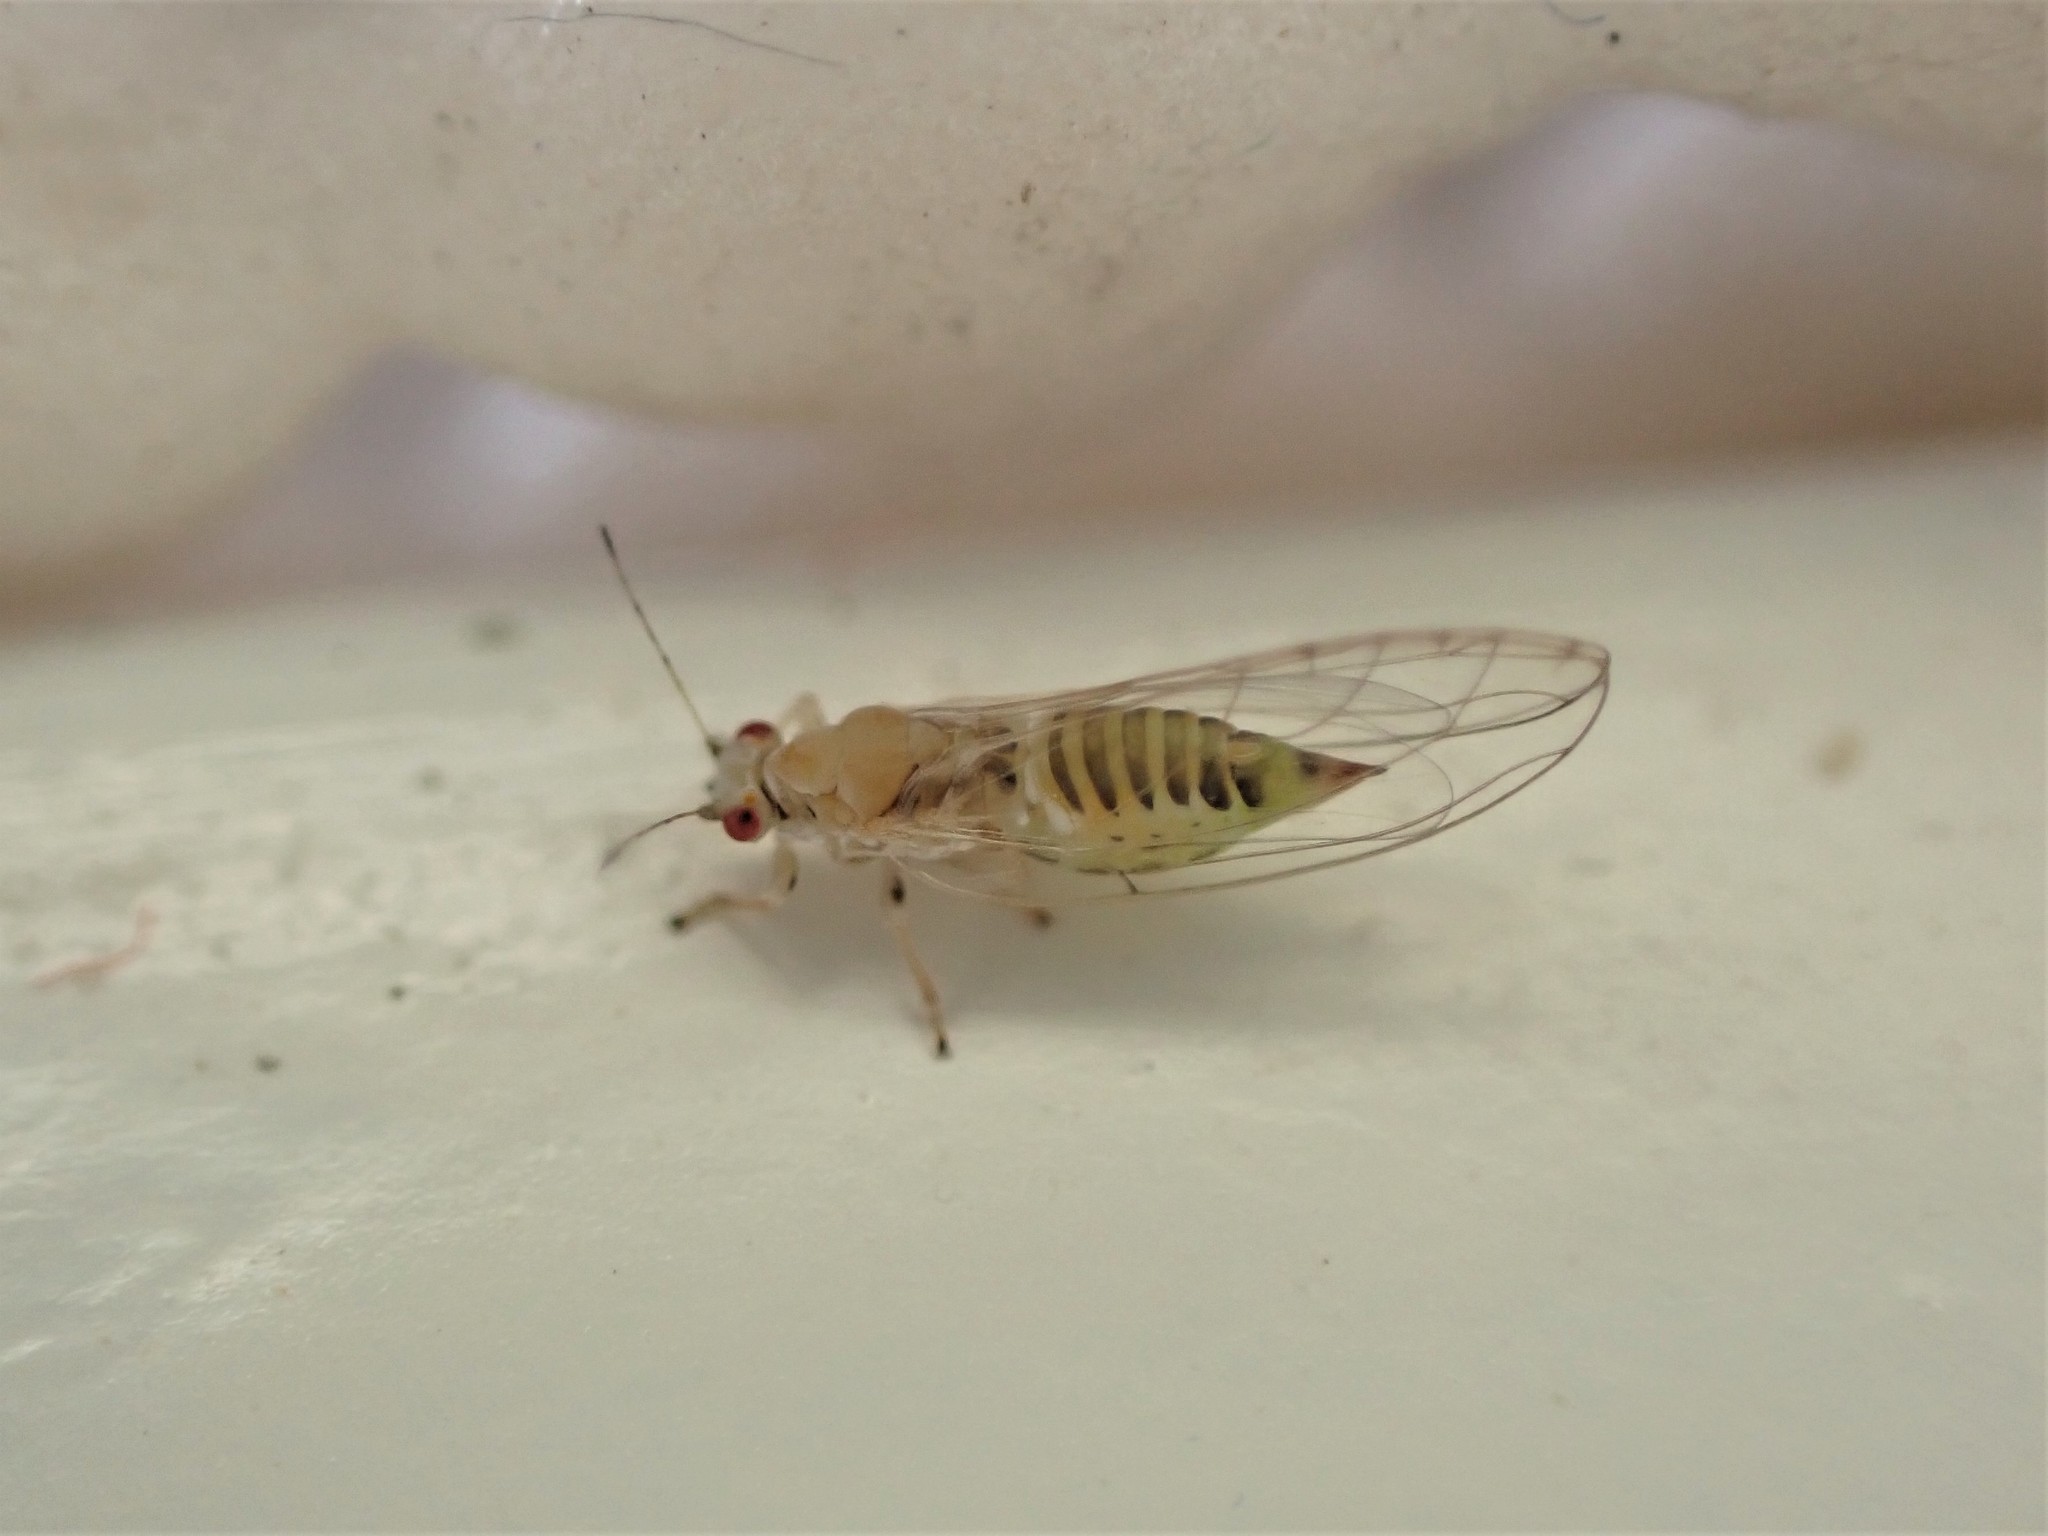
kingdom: Animalia
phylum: Arthropoda
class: Insecta
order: Hemiptera
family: Triozidae
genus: Powellia
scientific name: Powellia vitreoradiata
